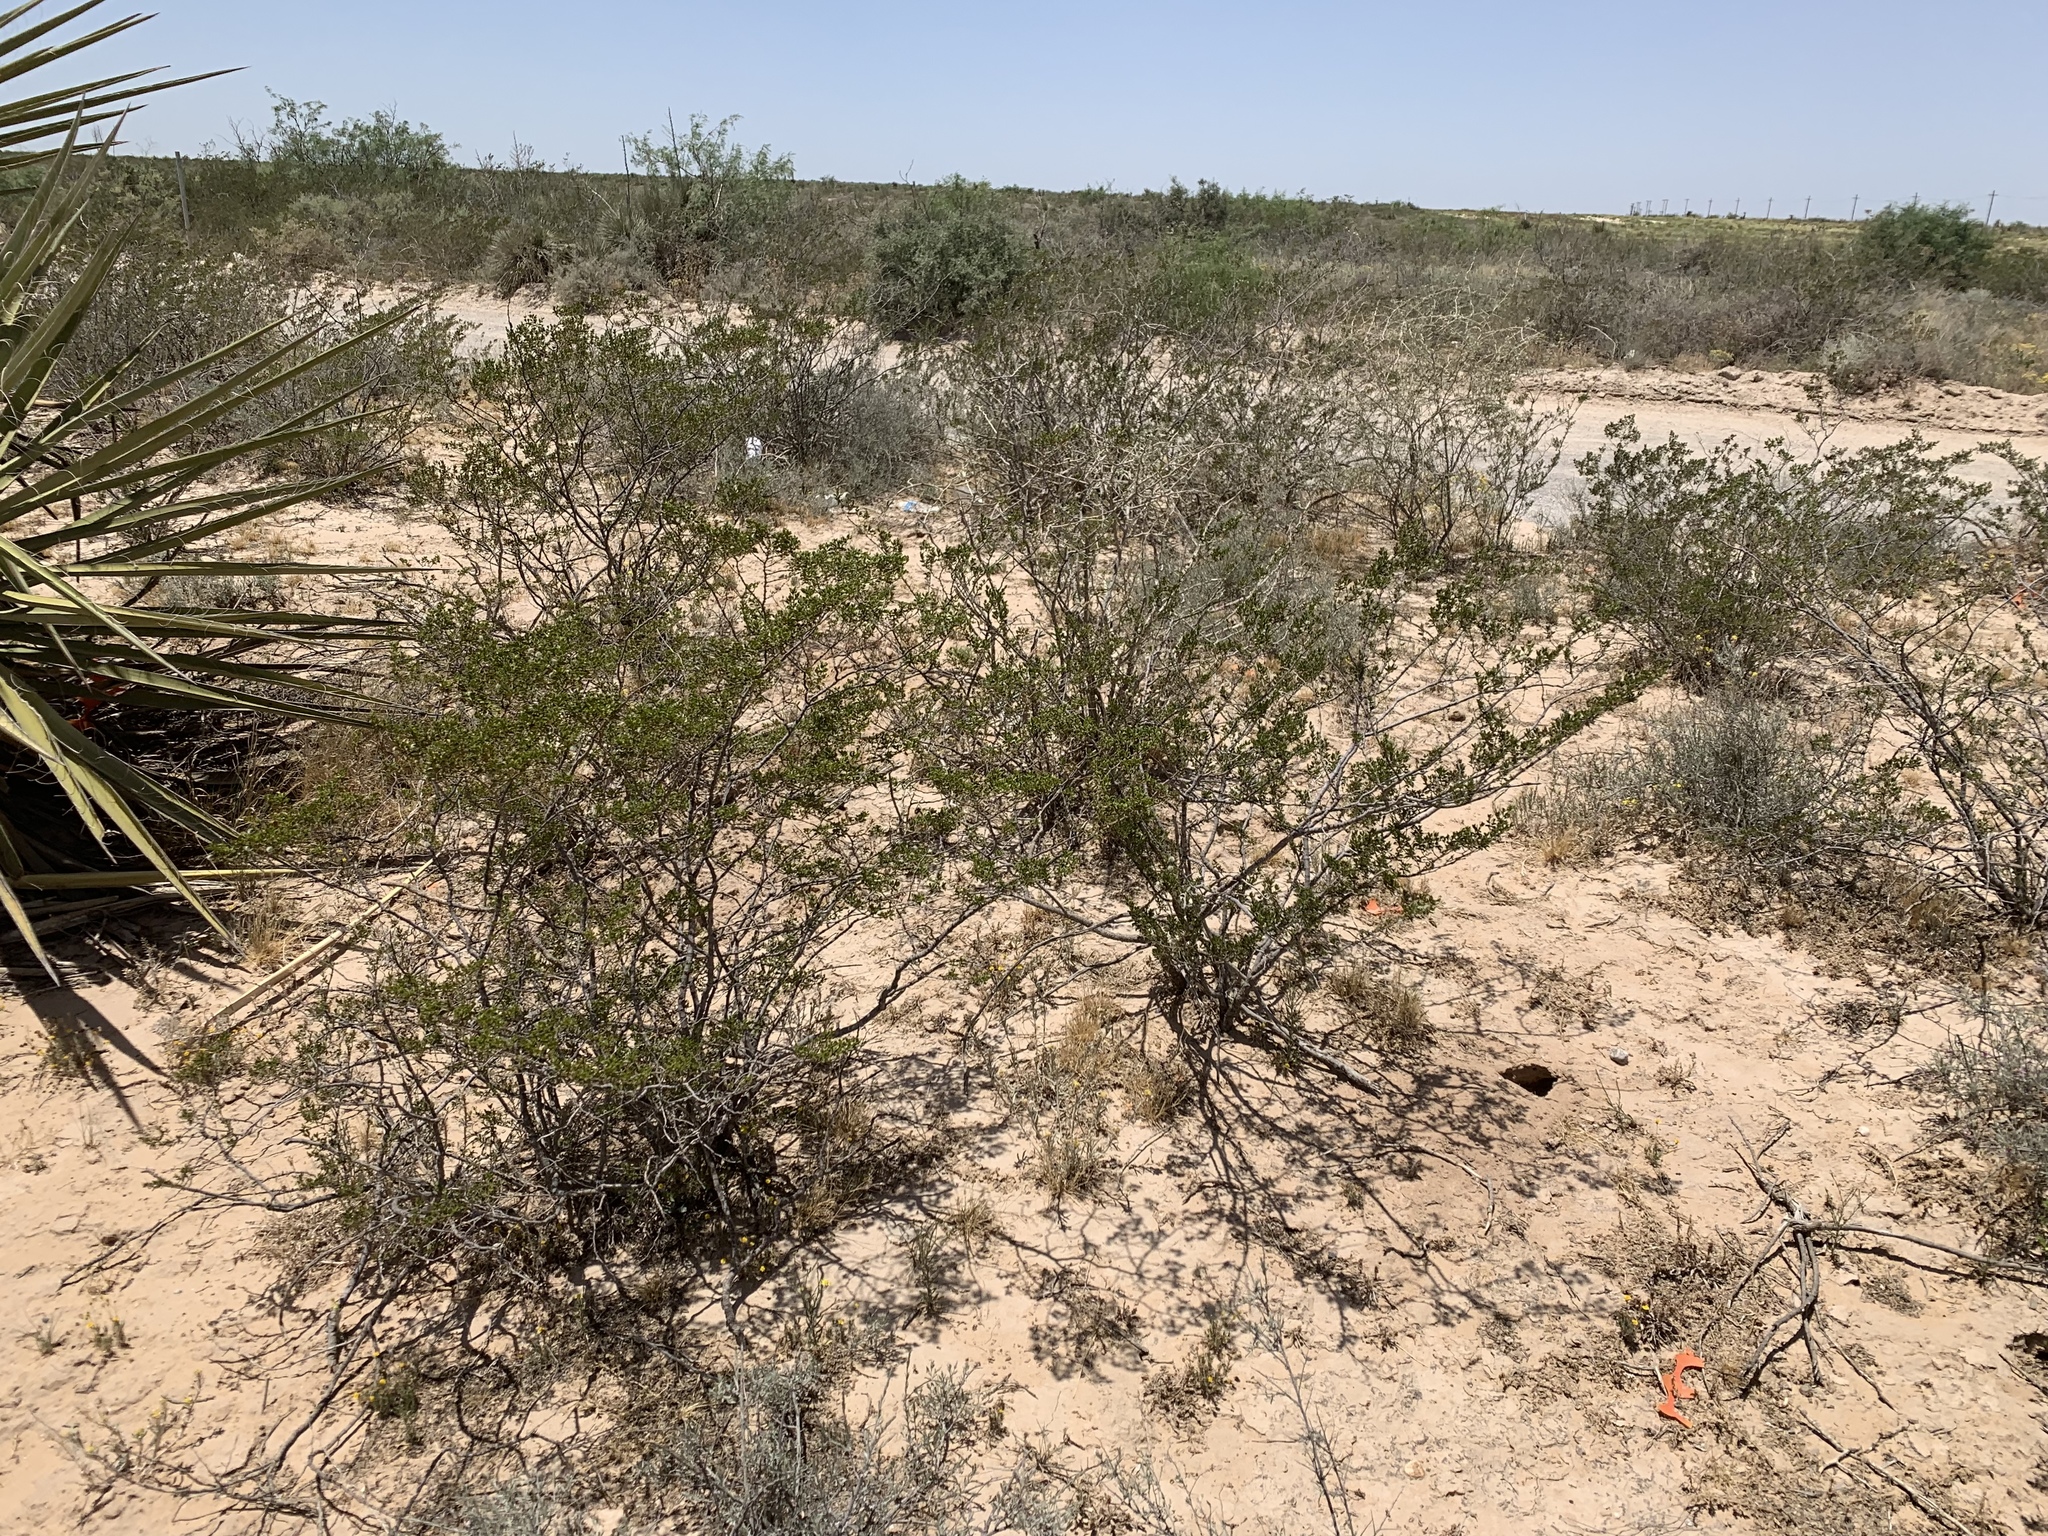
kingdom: Plantae
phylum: Tracheophyta
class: Magnoliopsida
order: Zygophyllales
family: Zygophyllaceae
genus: Larrea
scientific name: Larrea tridentata
